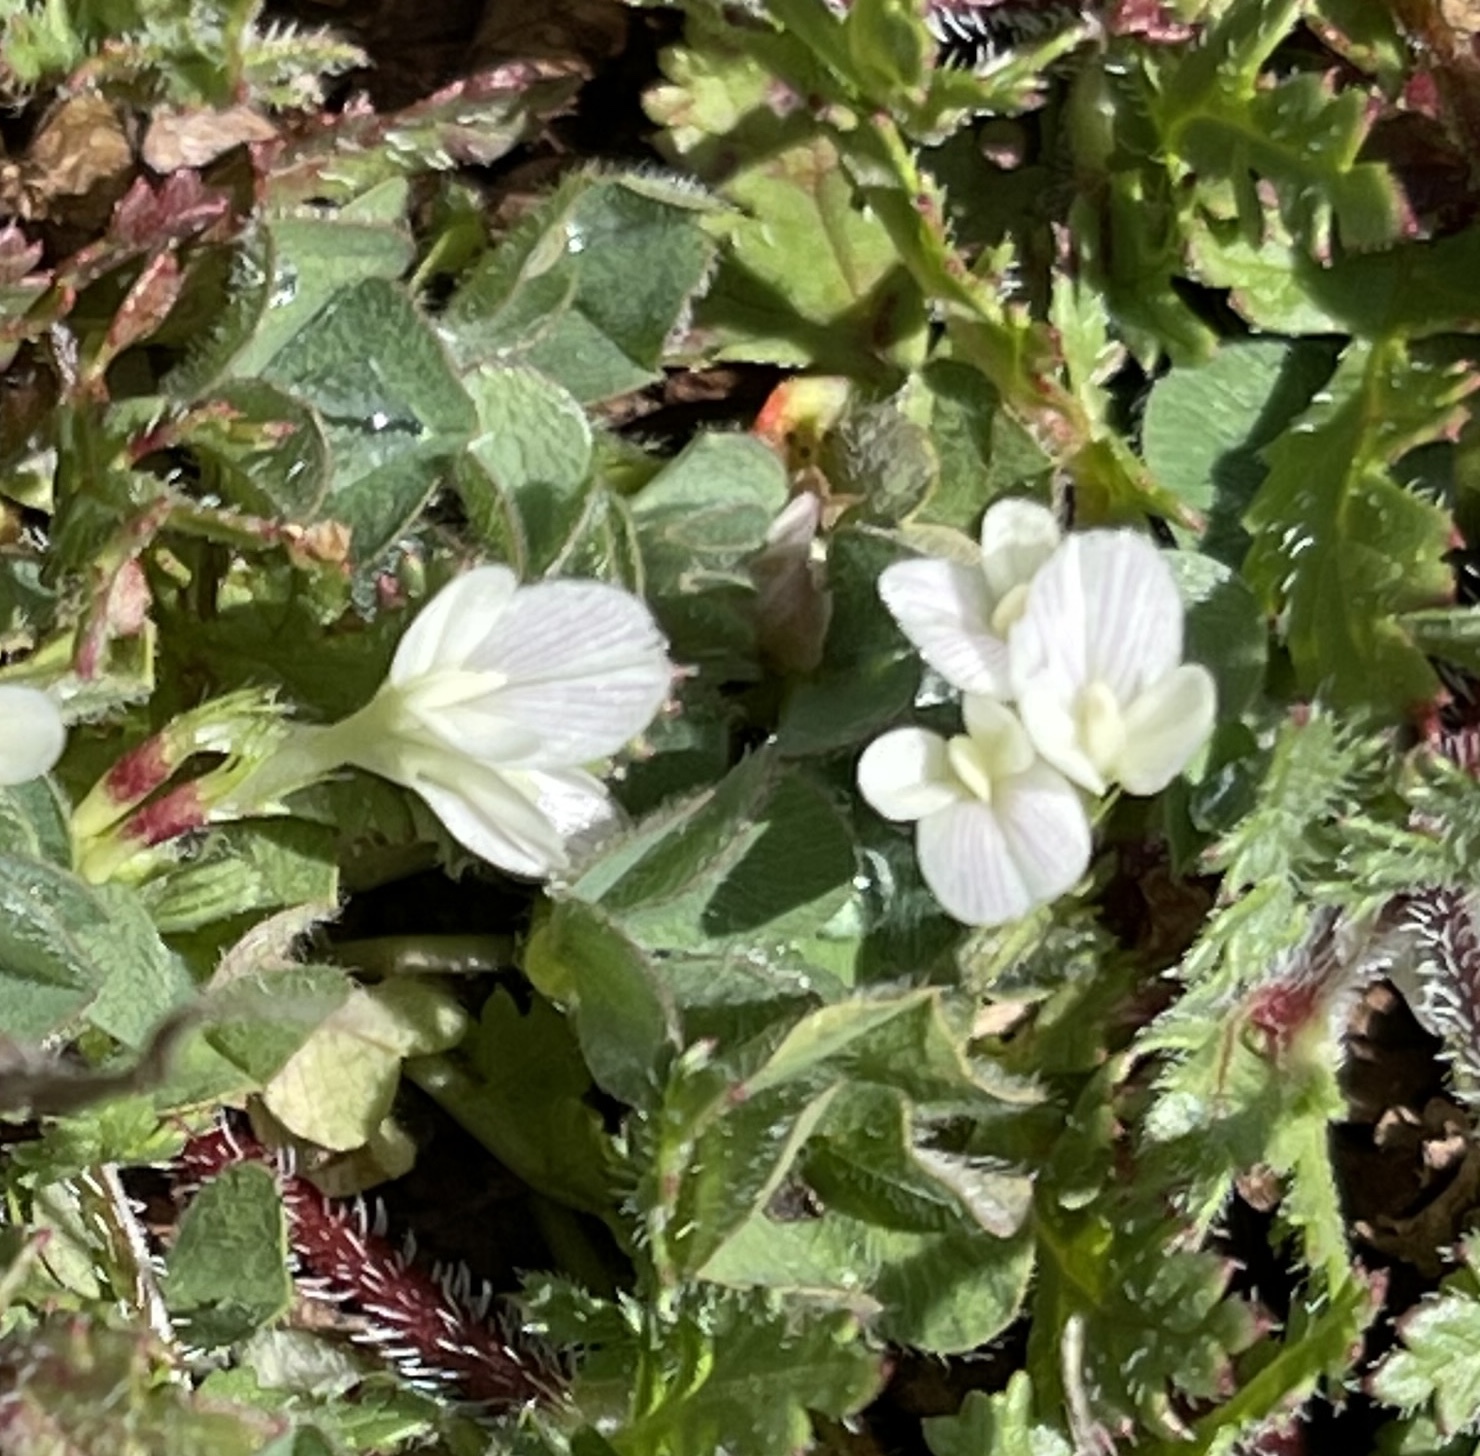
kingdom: Plantae
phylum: Tracheophyta
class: Magnoliopsida
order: Fabales
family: Fabaceae
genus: Trifolium
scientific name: Trifolium subterraneum
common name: Subterranean clover
